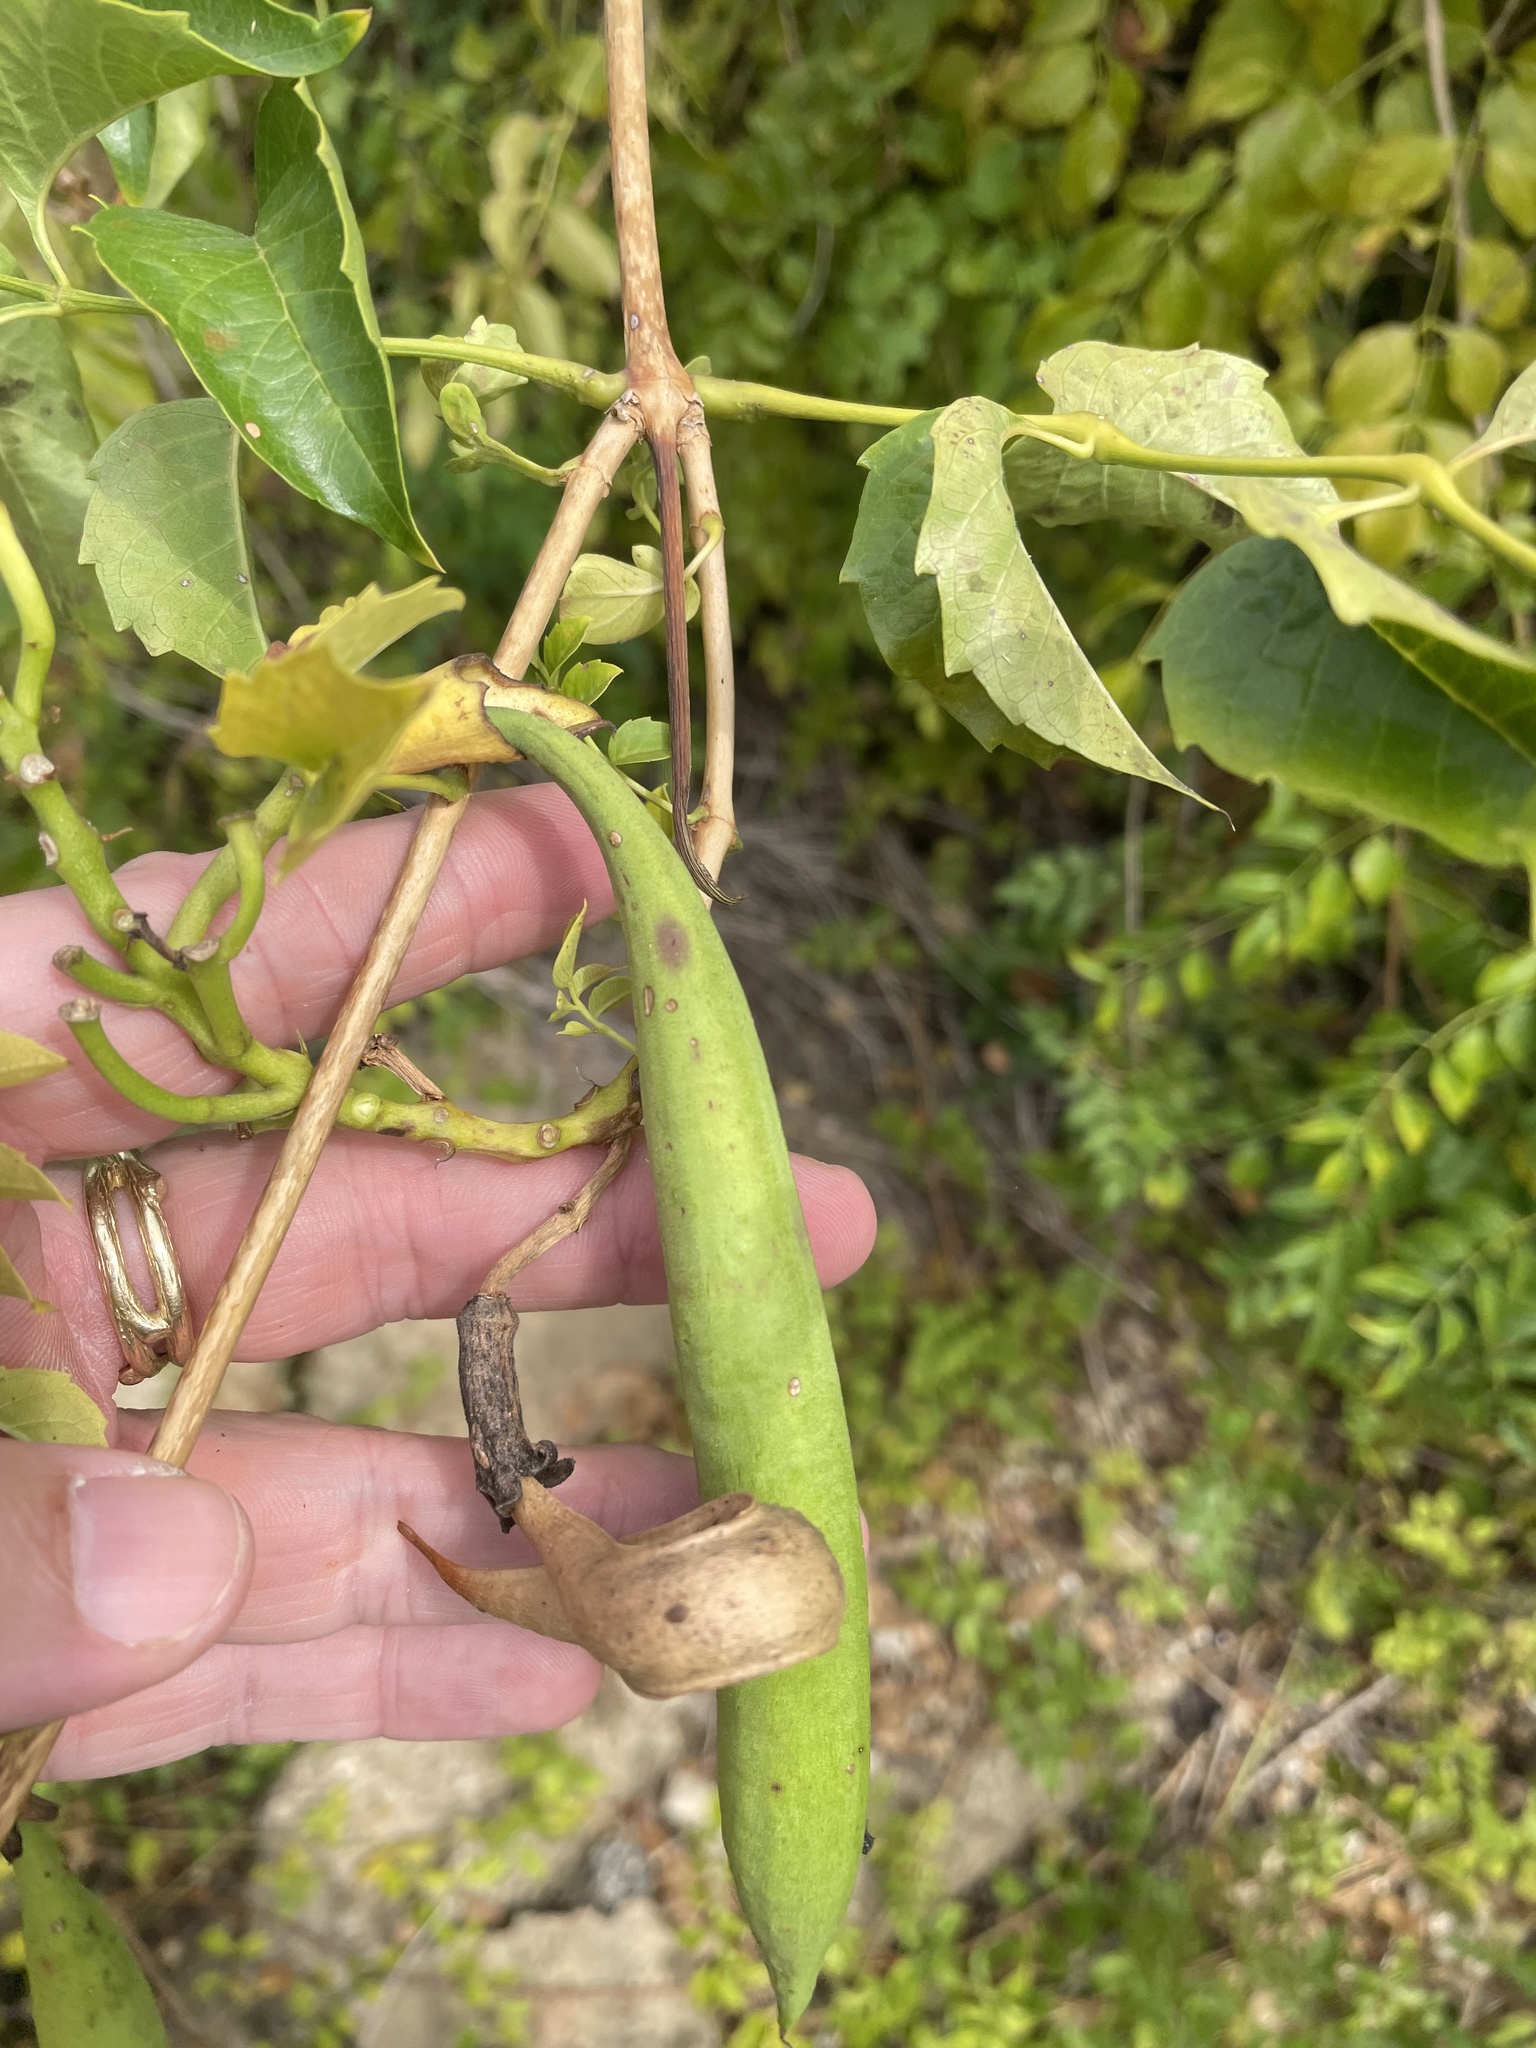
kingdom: Plantae
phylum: Tracheophyta
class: Magnoliopsida
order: Lamiales
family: Bignoniaceae
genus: Campsis
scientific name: Campsis radicans
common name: Trumpet-creeper
